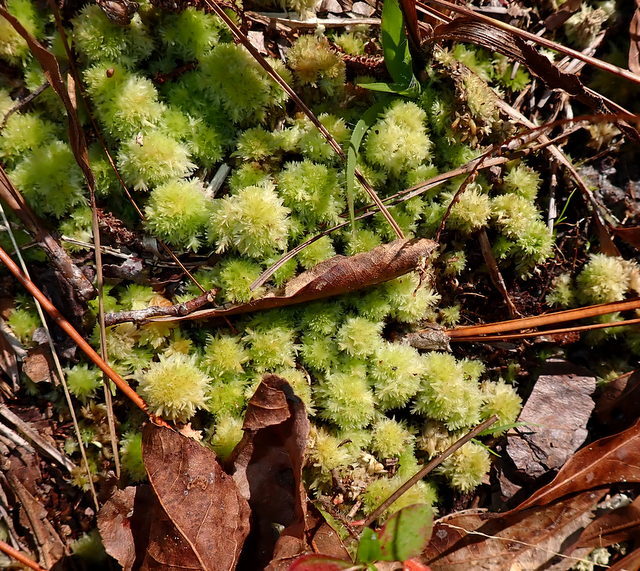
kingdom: Plantae
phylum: Bryophyta
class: Sphagnopsida
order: Sphagnales
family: Sphagnaceae
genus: Sphagnum
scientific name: Sphagnum strictum
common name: Pale bog-moss
